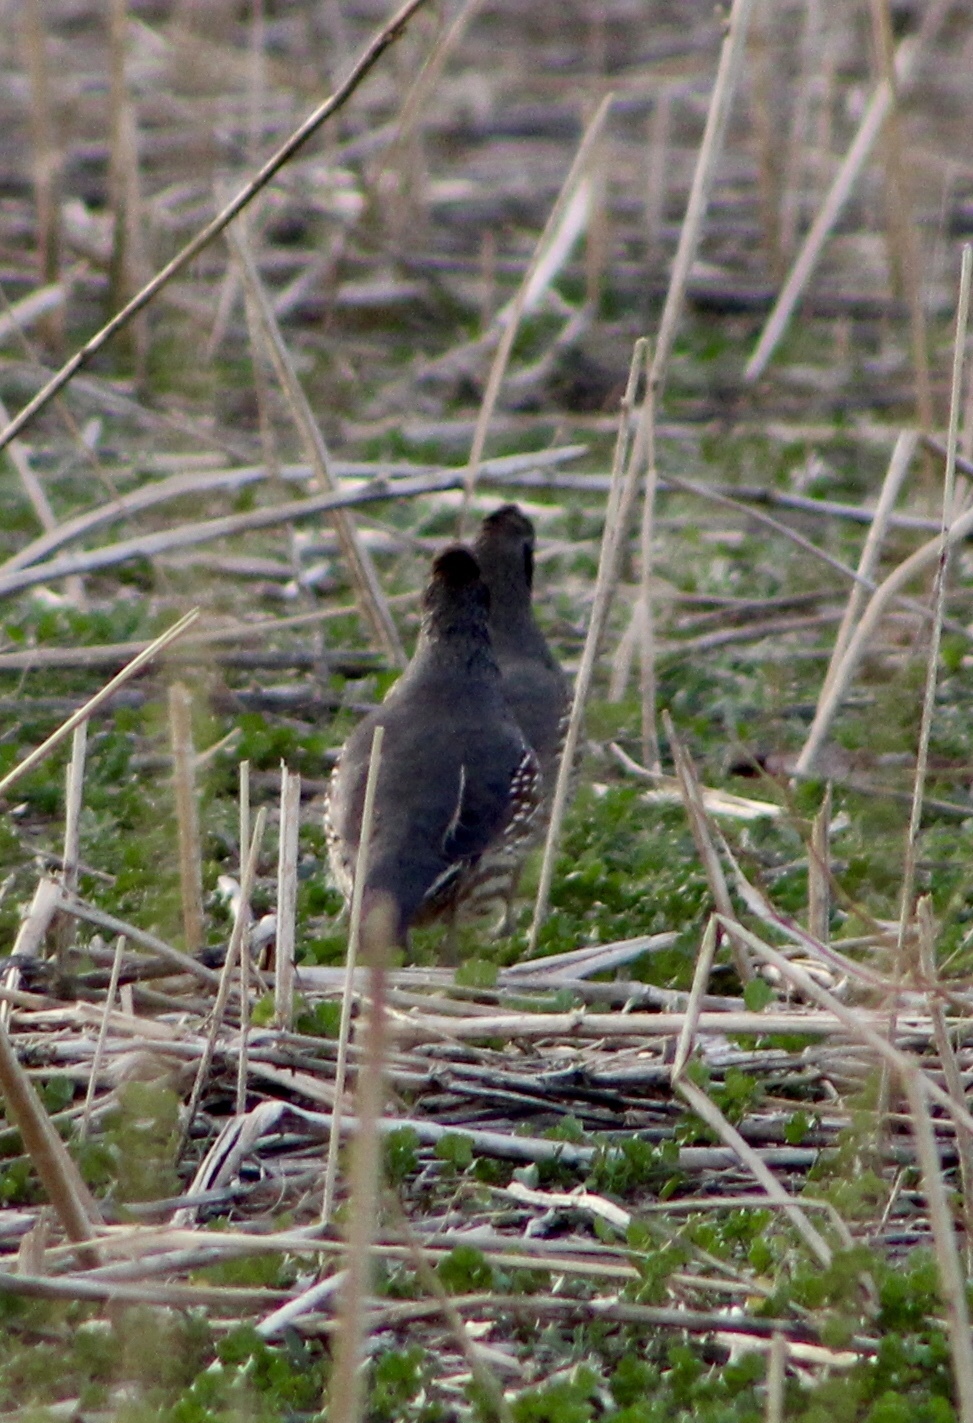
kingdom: Animalia
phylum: Chordata
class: Aves
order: Galliformes
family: Odontophoridae
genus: Callipepla
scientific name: Callipepla gambelii
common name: Gambel's quail
